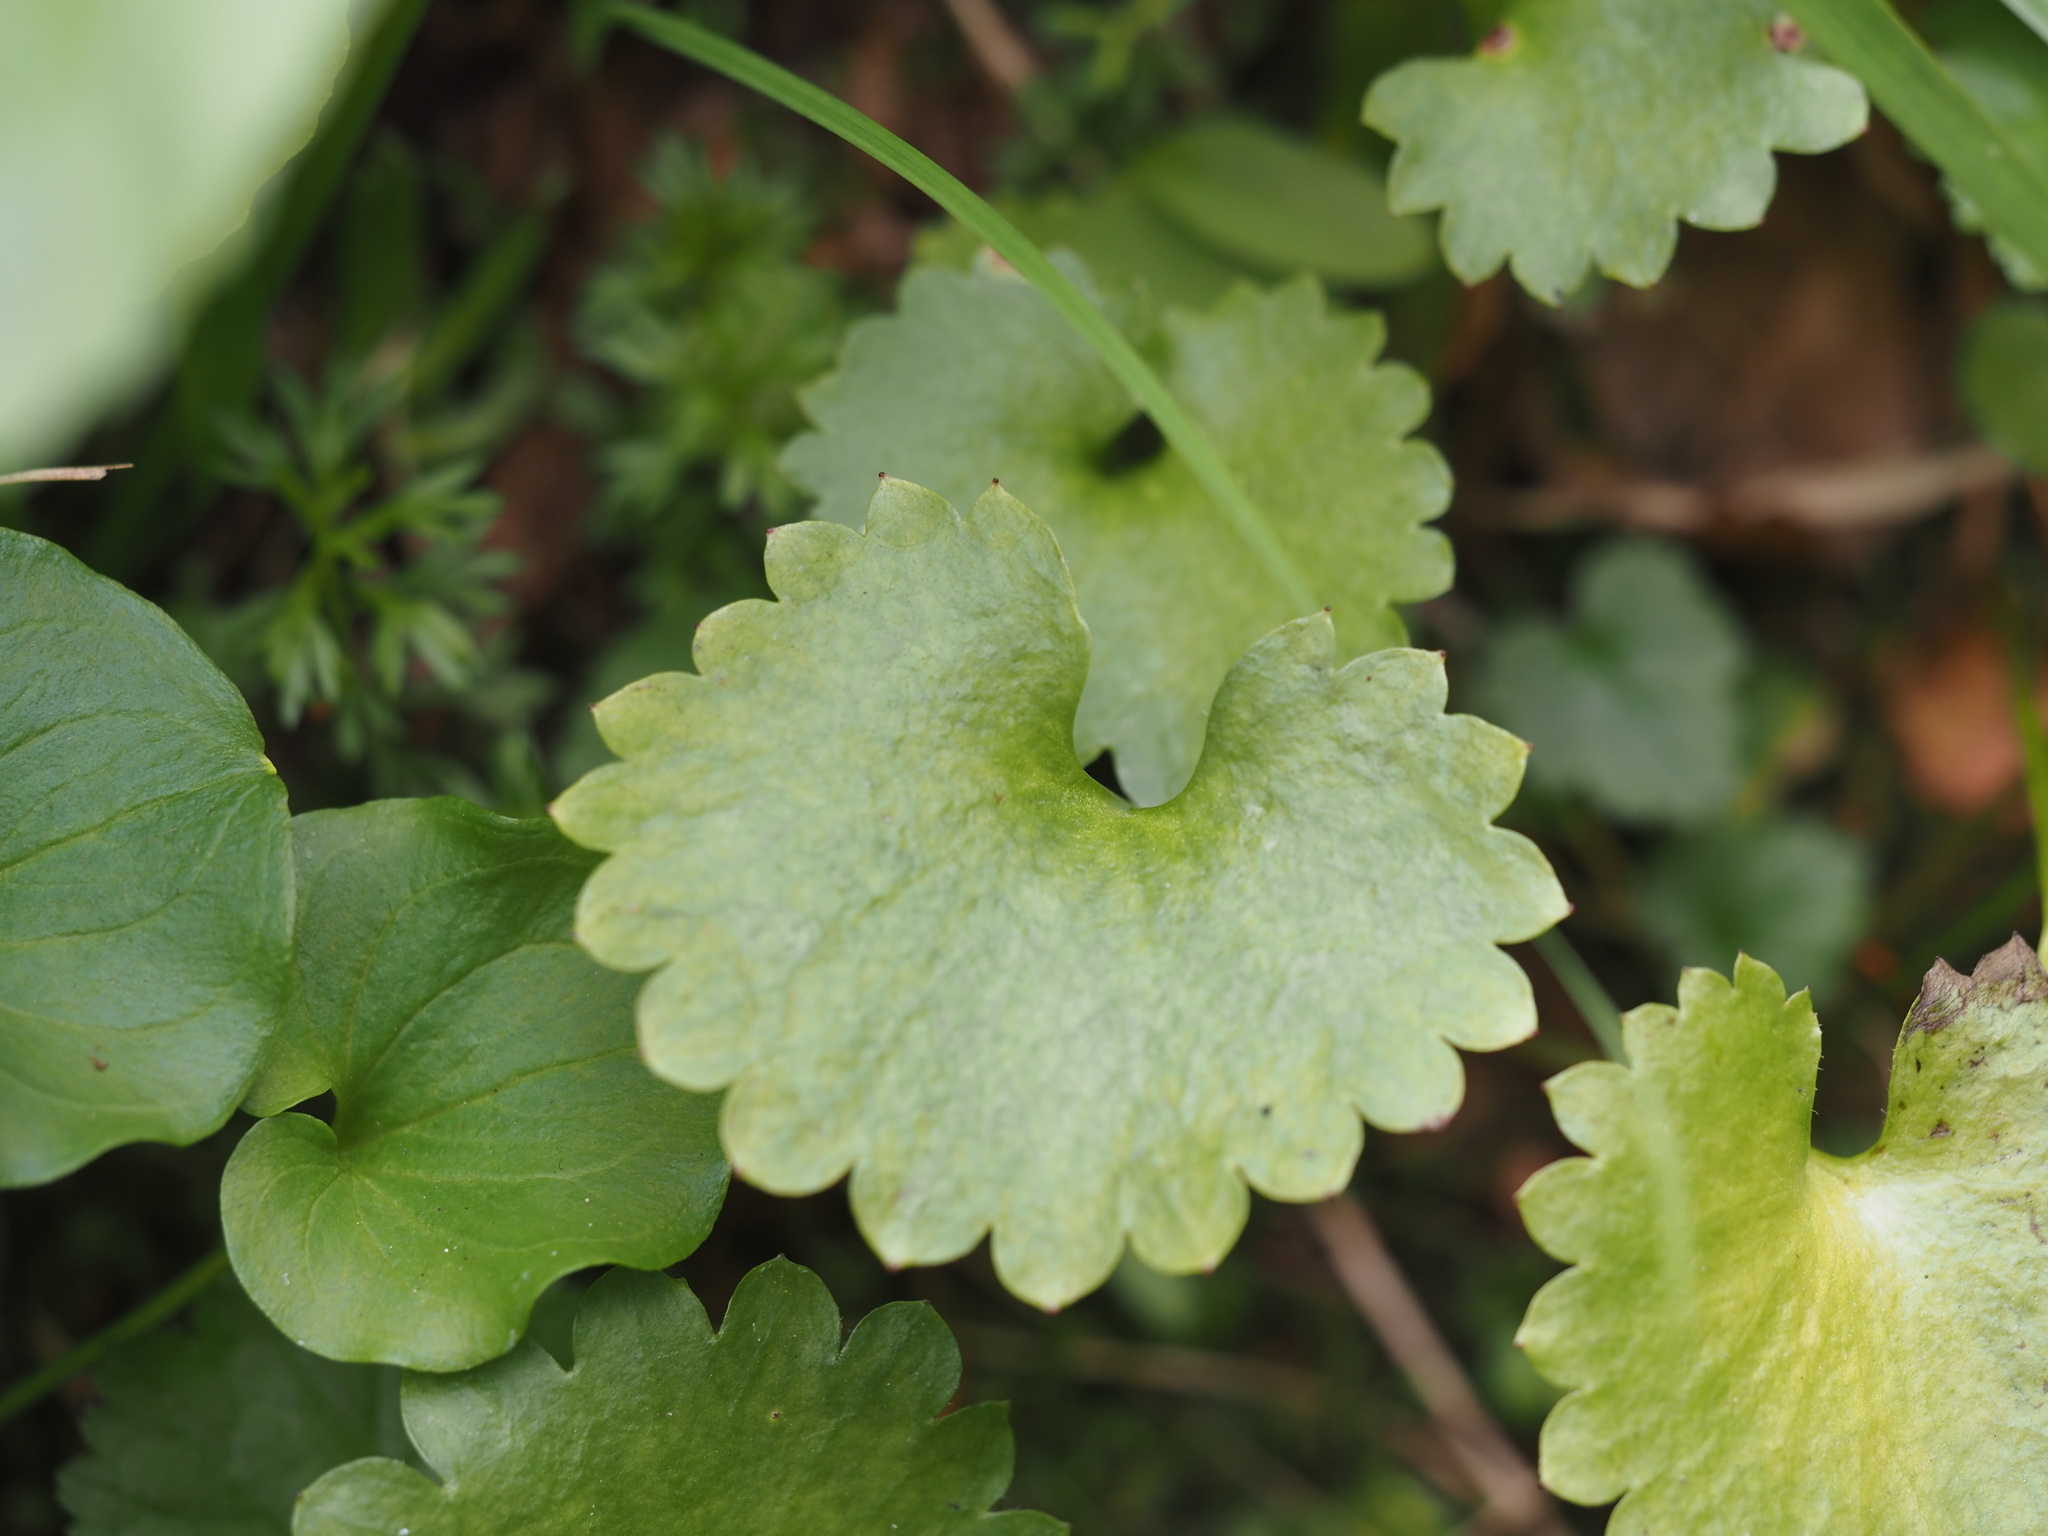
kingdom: Plantae
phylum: Tracheophyta
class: Magnoliopsida
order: Saxifragales
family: Saxifragaceae
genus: Micranthes
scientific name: Micranthes odontoloma
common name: Brook saxifrage
